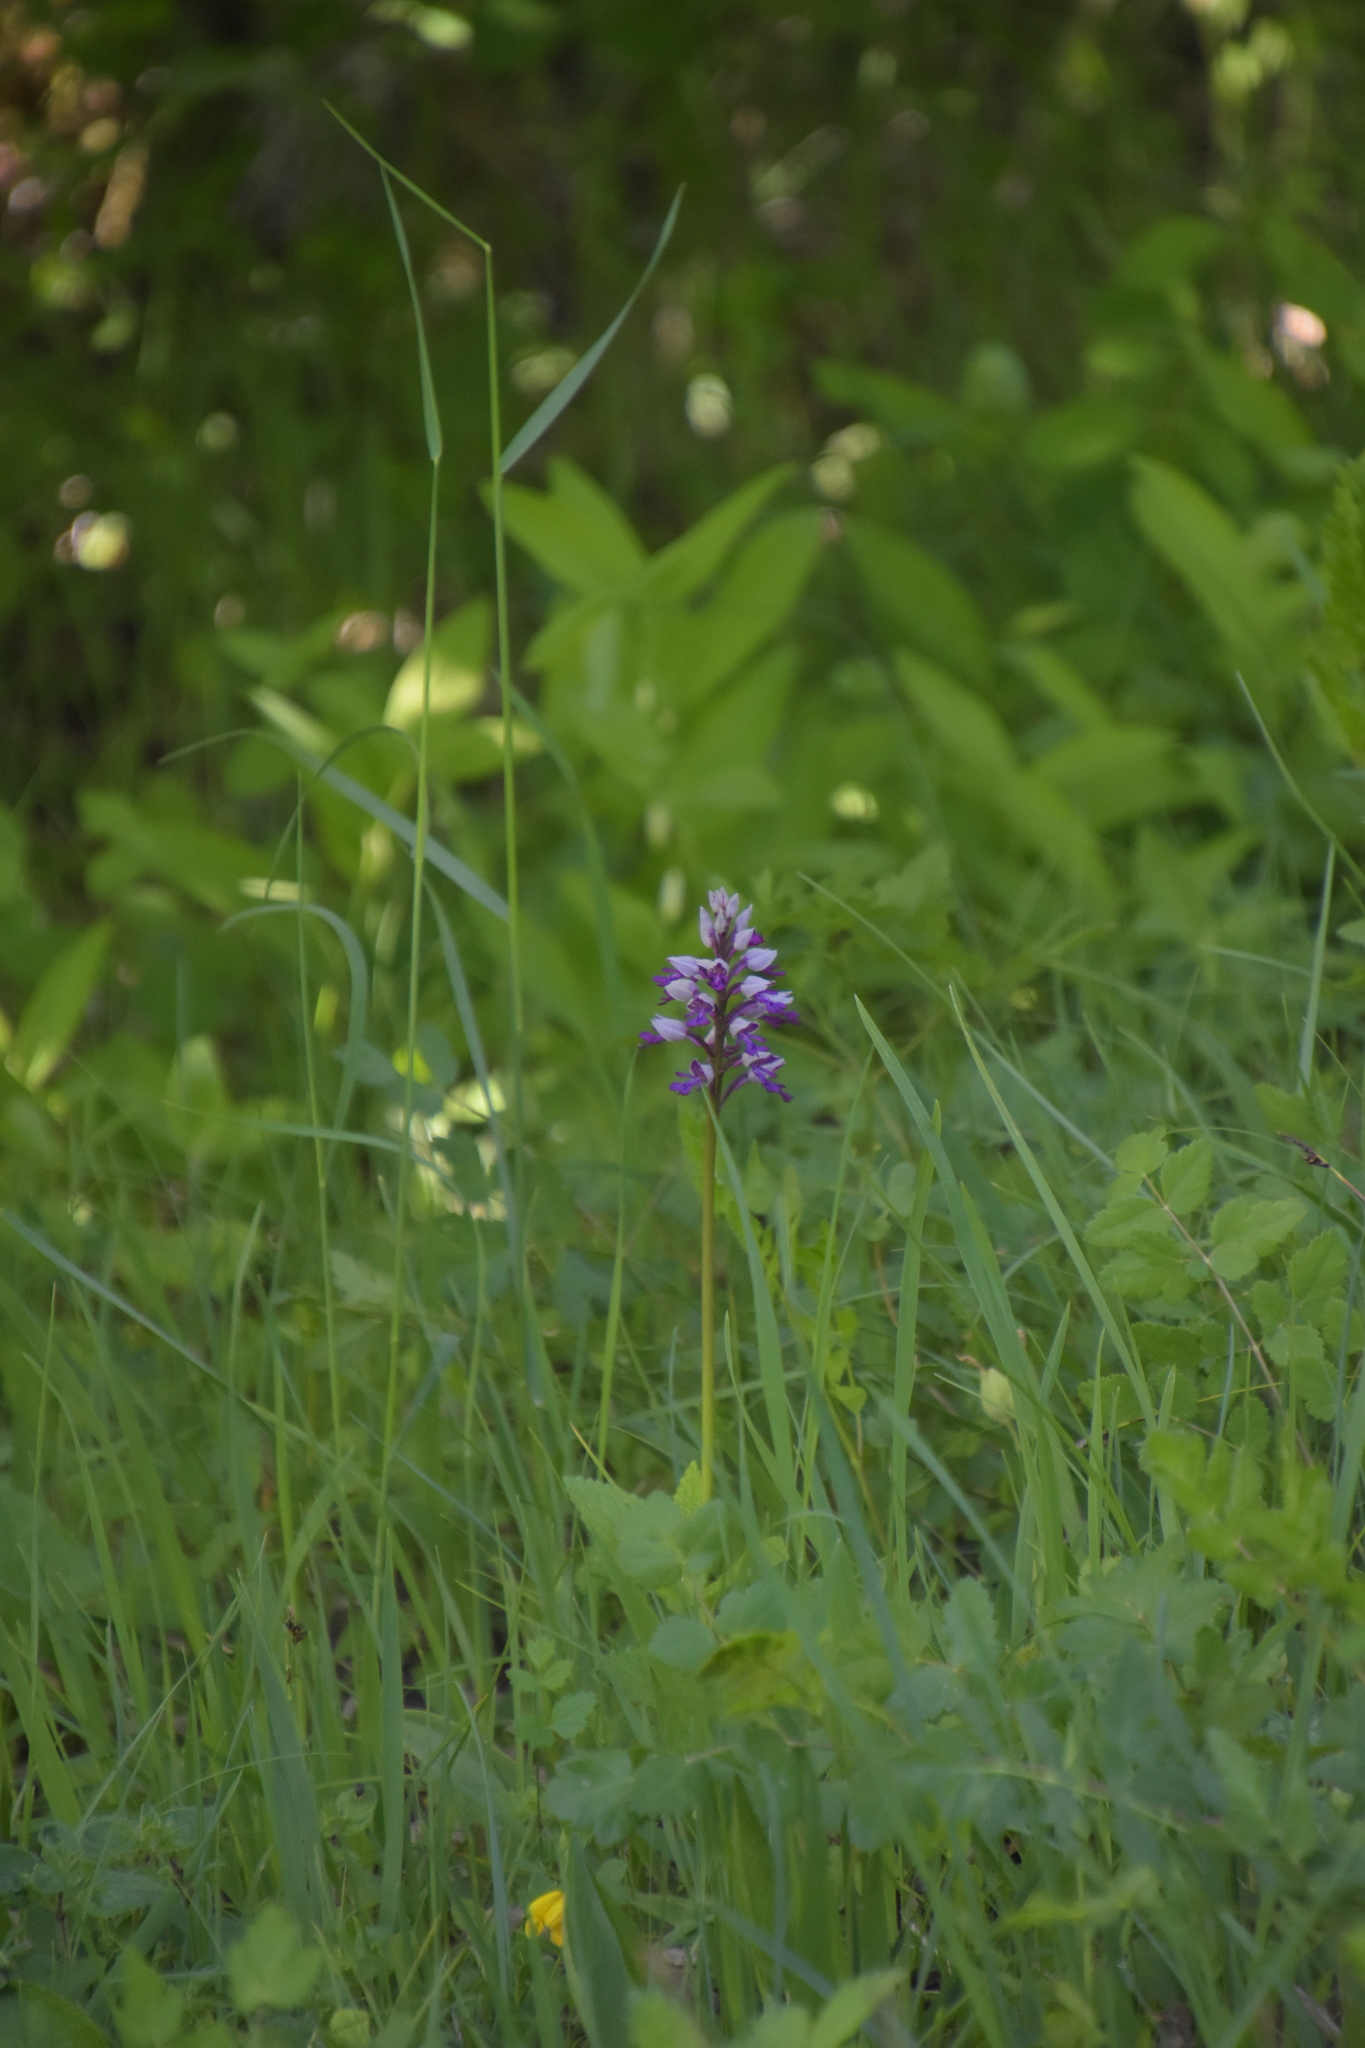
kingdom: Plantae
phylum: Tracheophyta
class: Liliopsida
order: Asparagales
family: Orchidaceae
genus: Orchis
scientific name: Orchis militaris
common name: Military orchid
